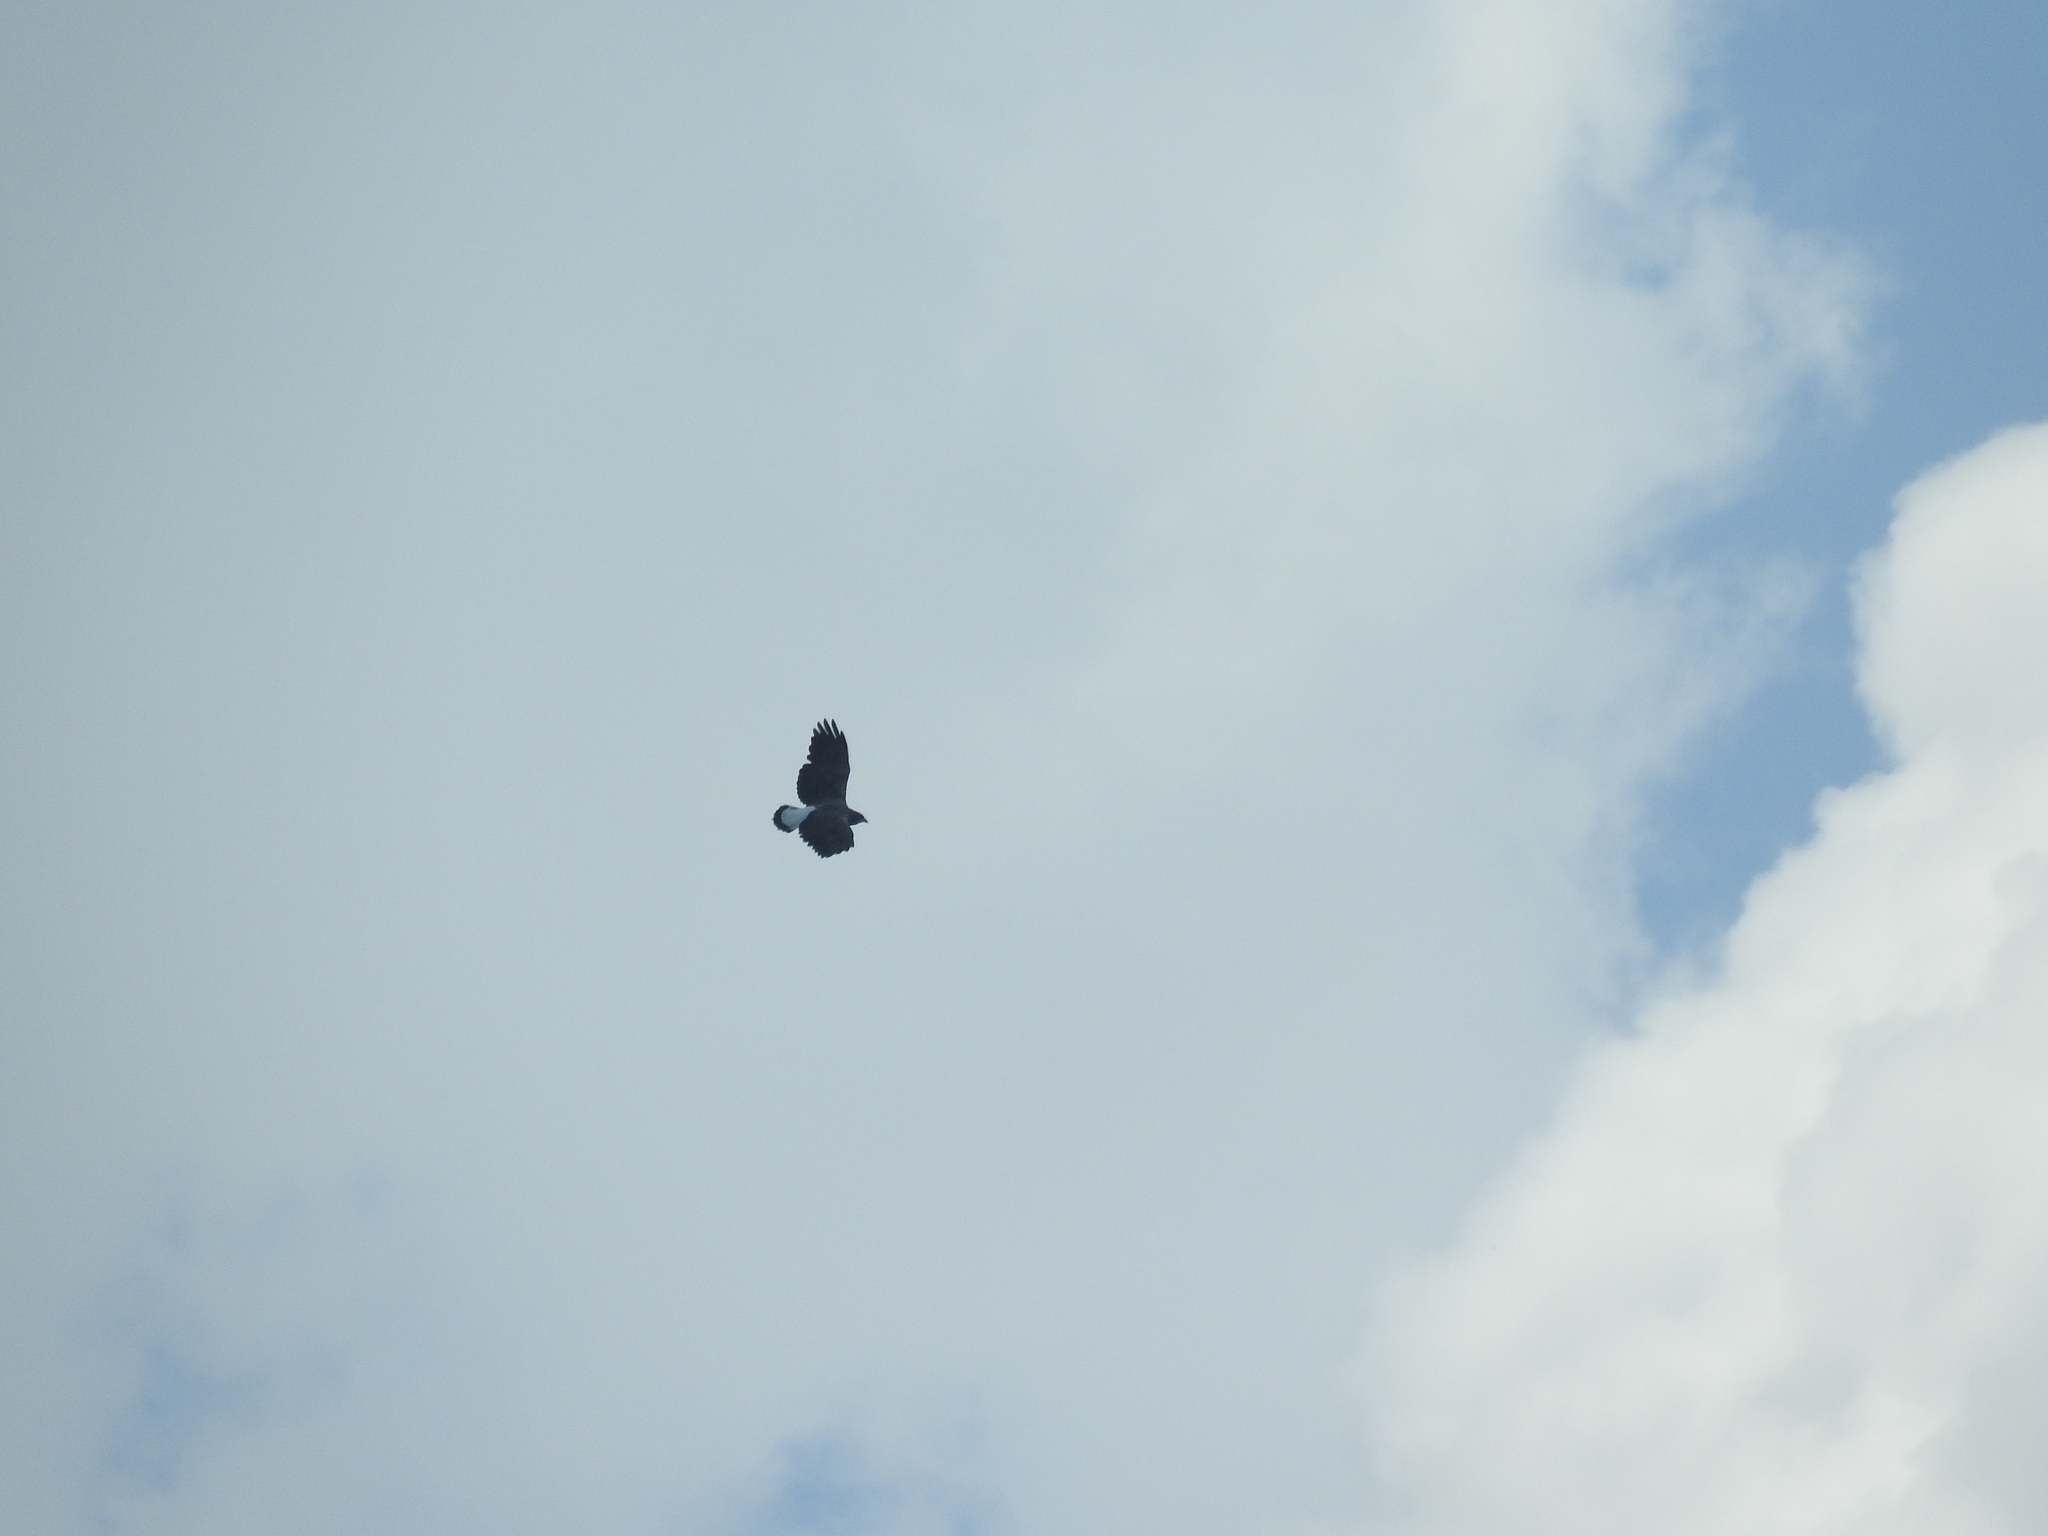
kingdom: Animalia
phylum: Chordata
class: Aves
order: Accipitriformes
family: Accipitridae
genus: Buteo
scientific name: Buteo albicaudatus
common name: White-tailed hawk
